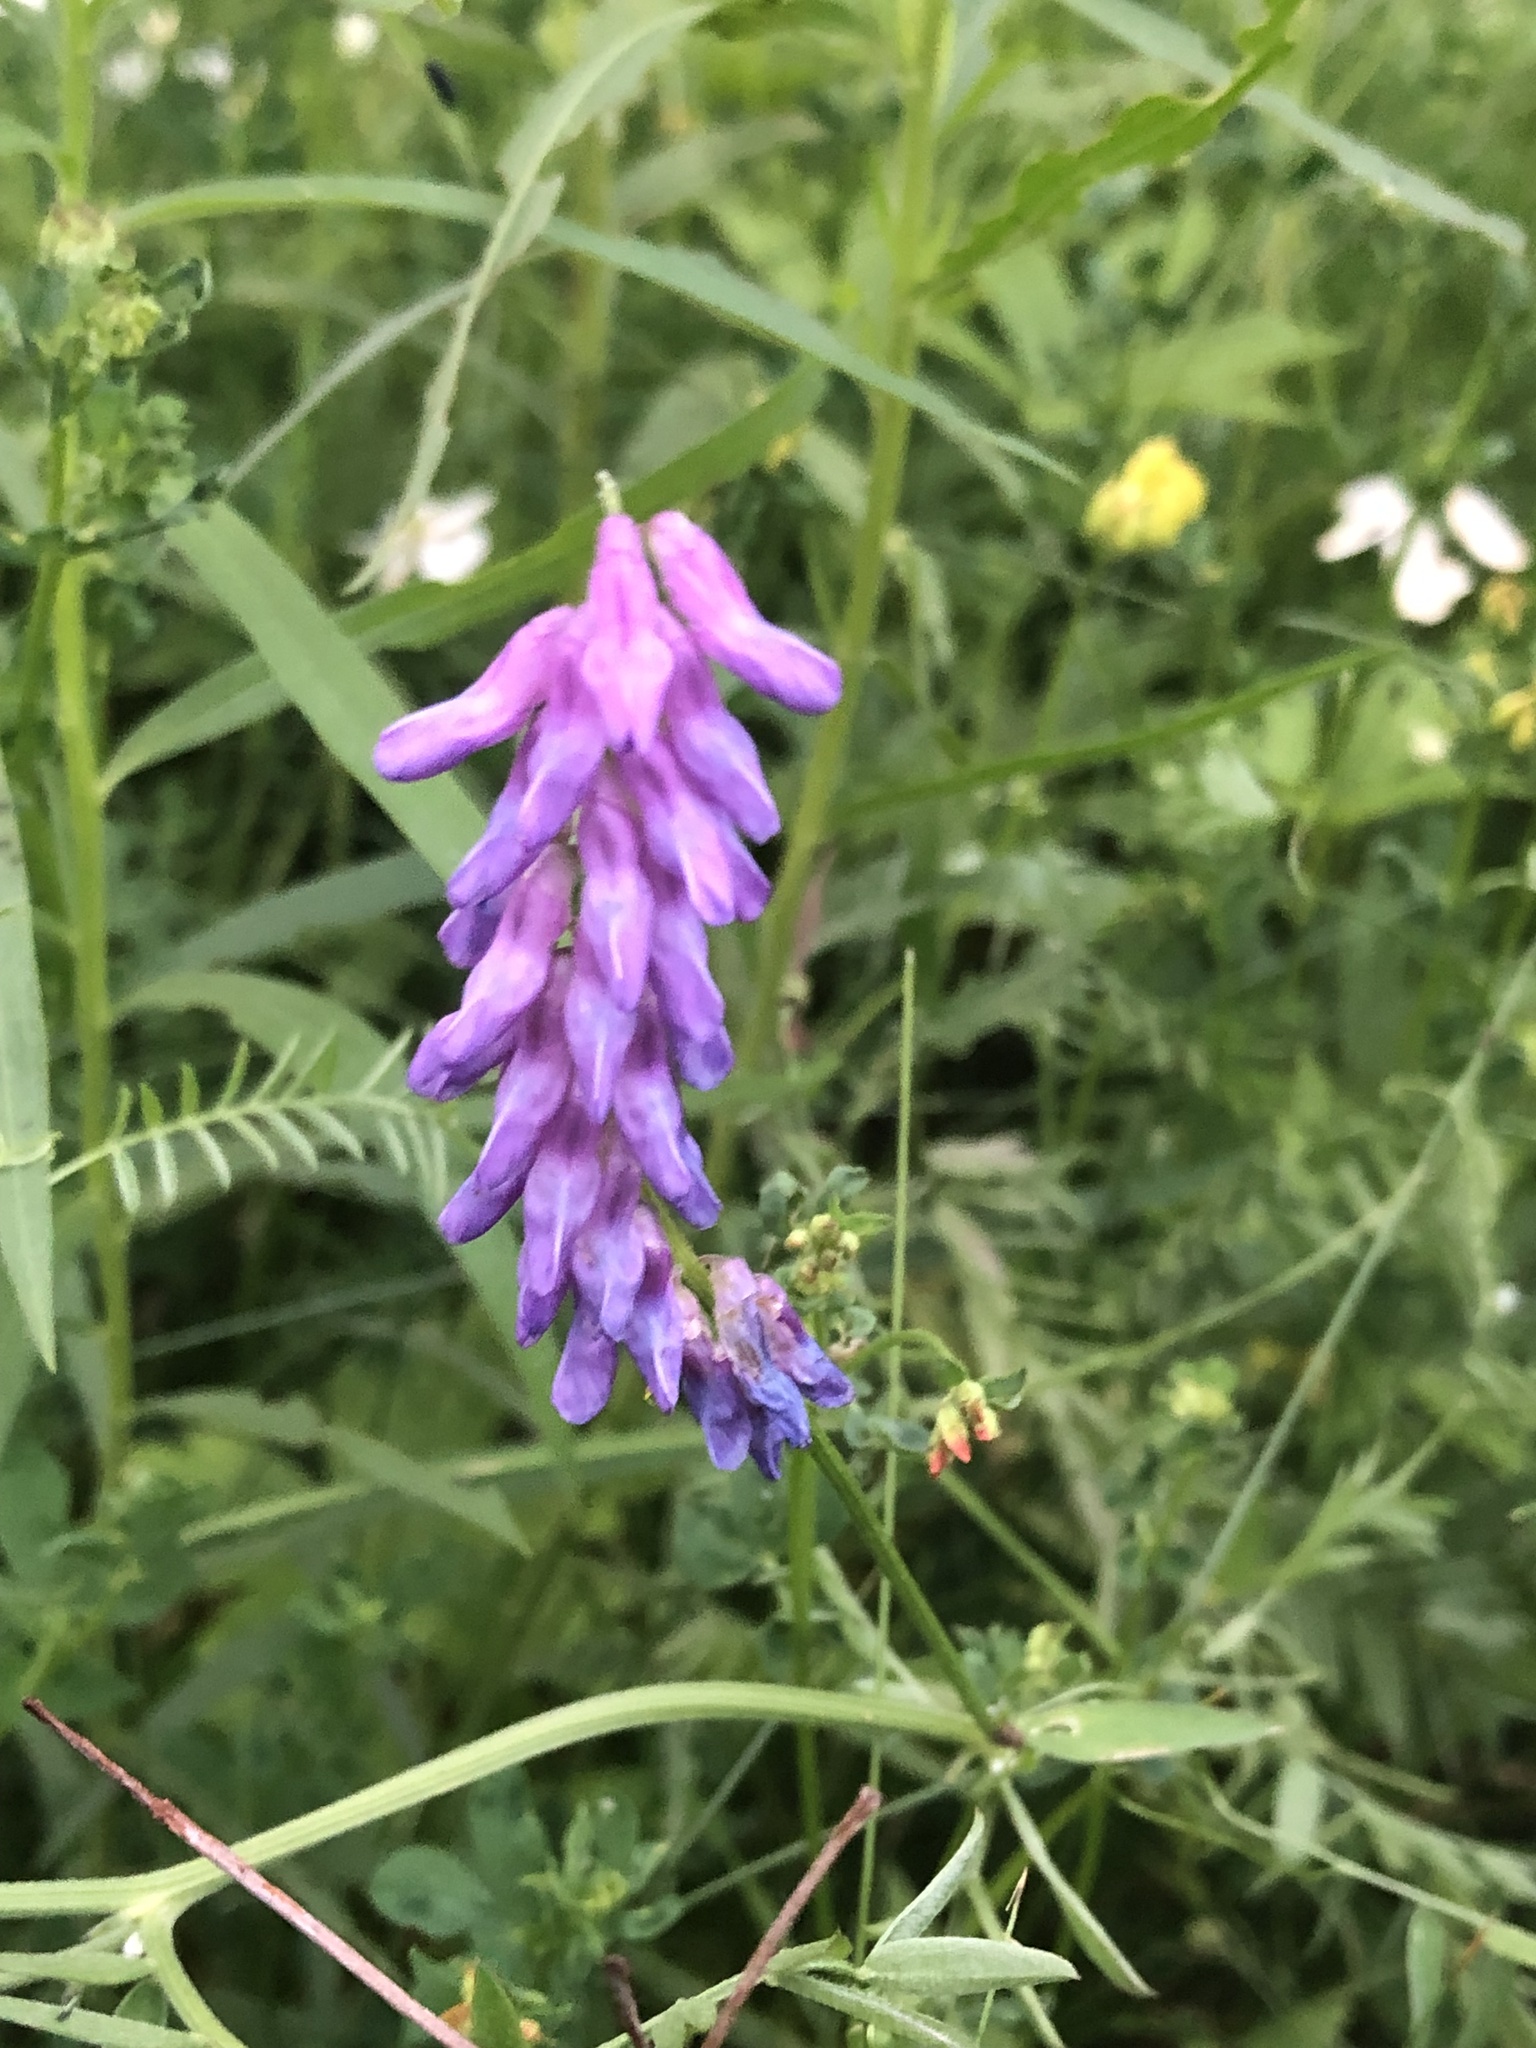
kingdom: Plantae
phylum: Tracheophyta
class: Magnoliopsida
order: Fabales
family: Fabaceae
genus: Vicia
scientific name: Vicia cracca
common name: Bird vetch
